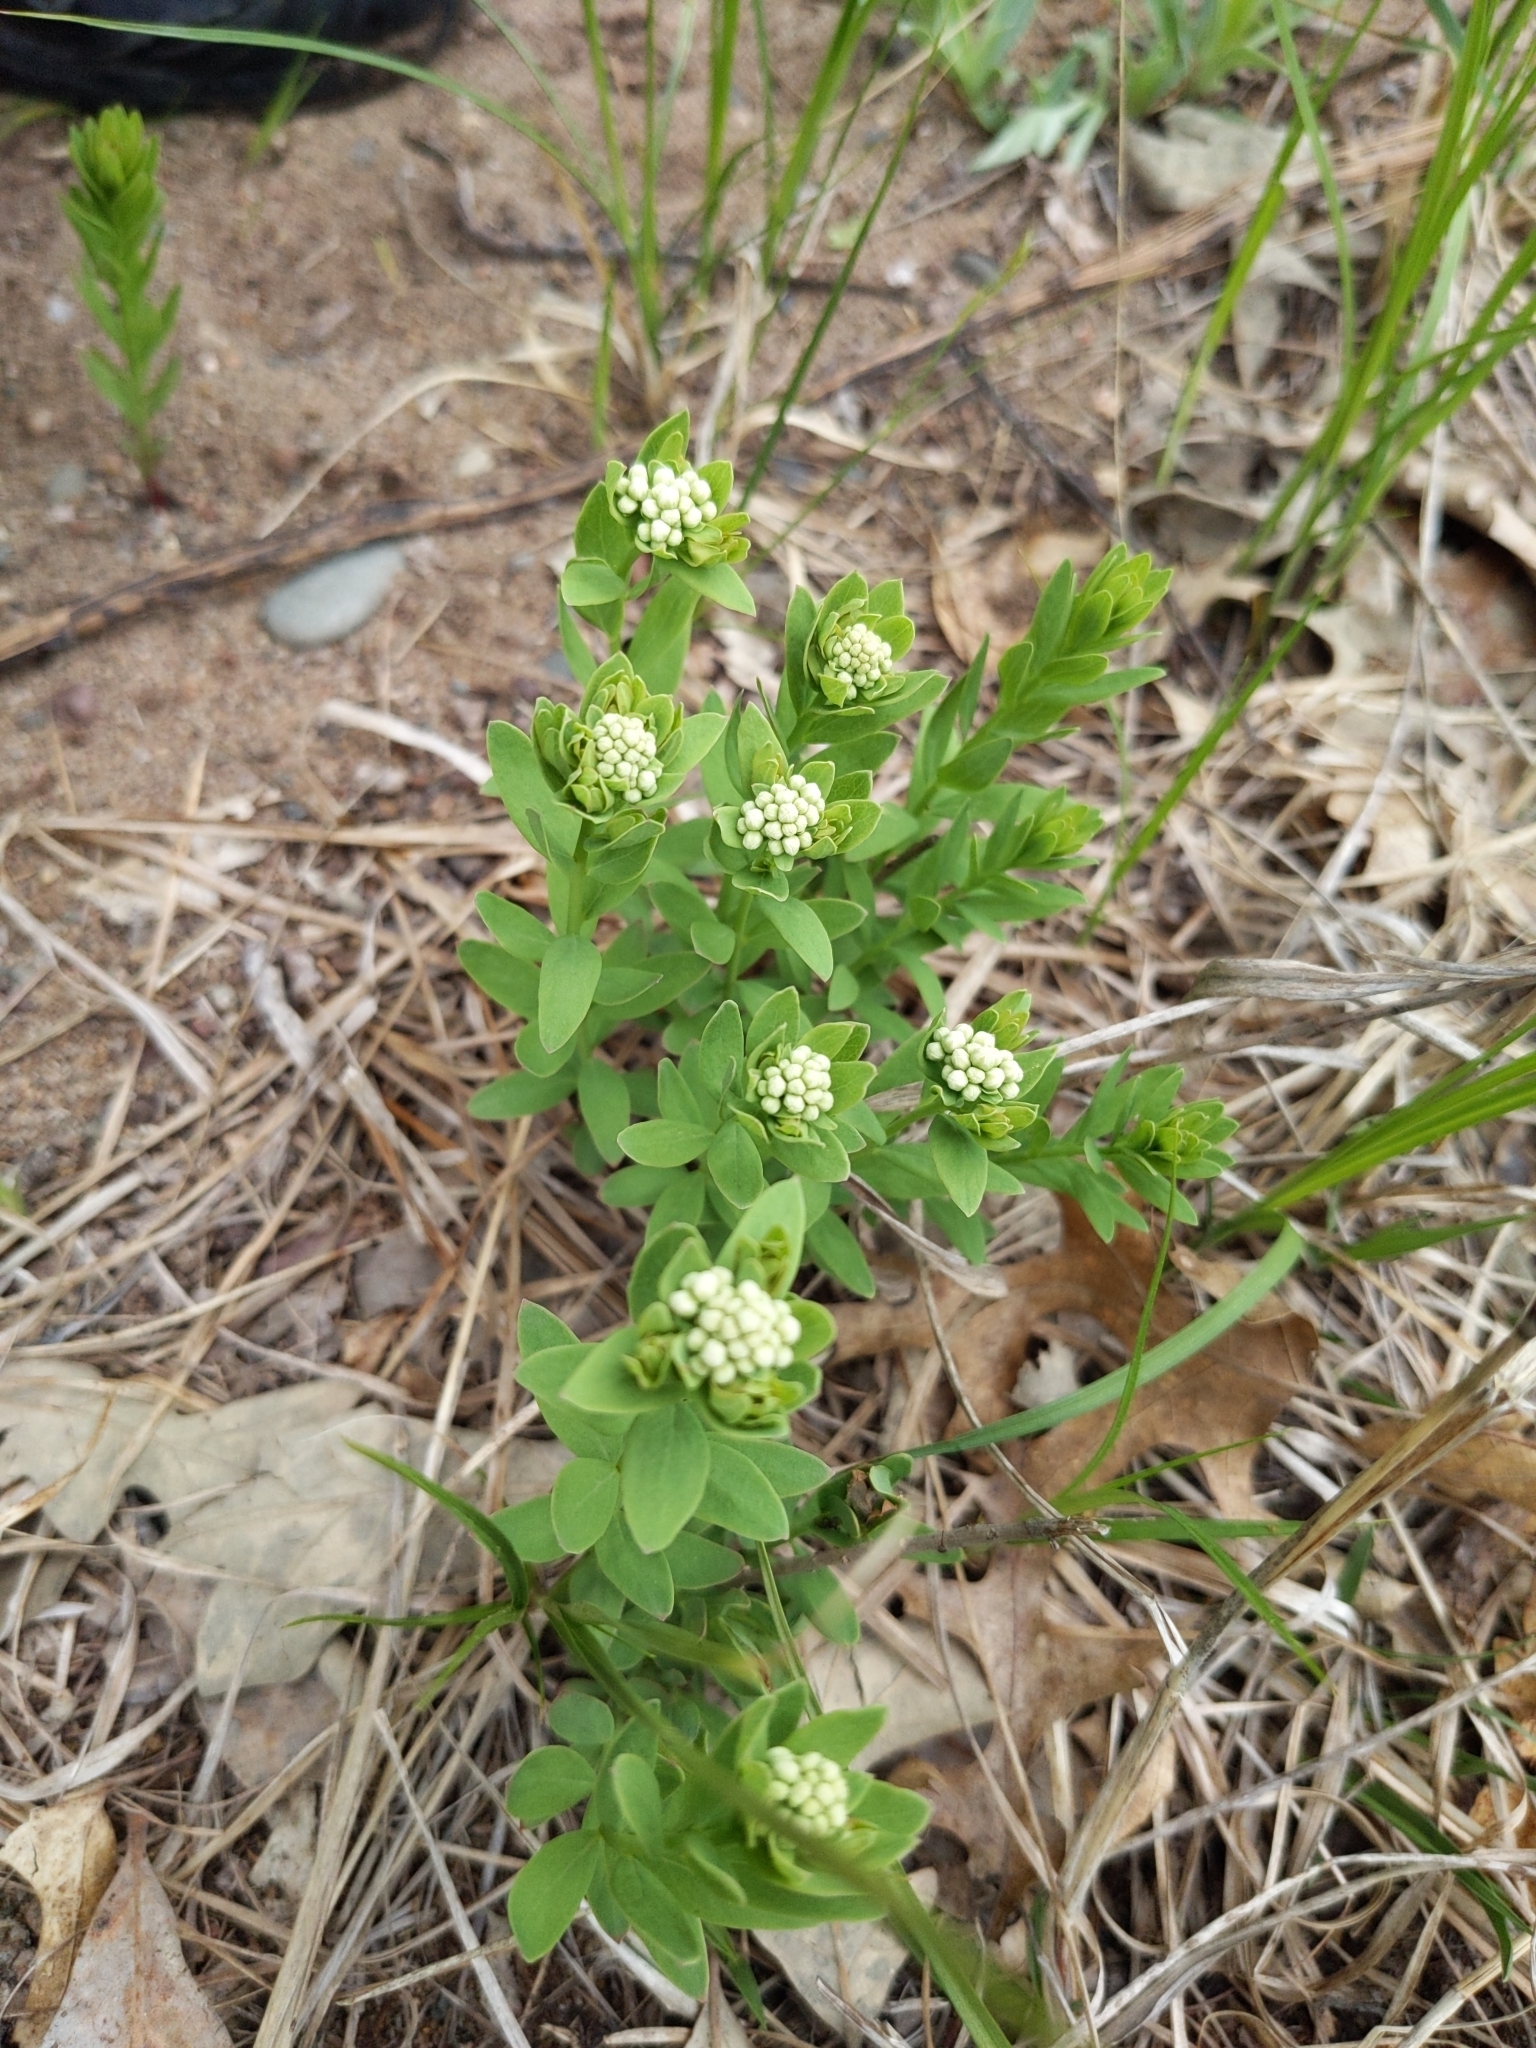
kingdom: Plantae
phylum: Tracheophyta
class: Magnoliopsida
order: Santalales
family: Comandraceae
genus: Comandra
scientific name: Comandra umbellata
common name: Bastard toadflax
